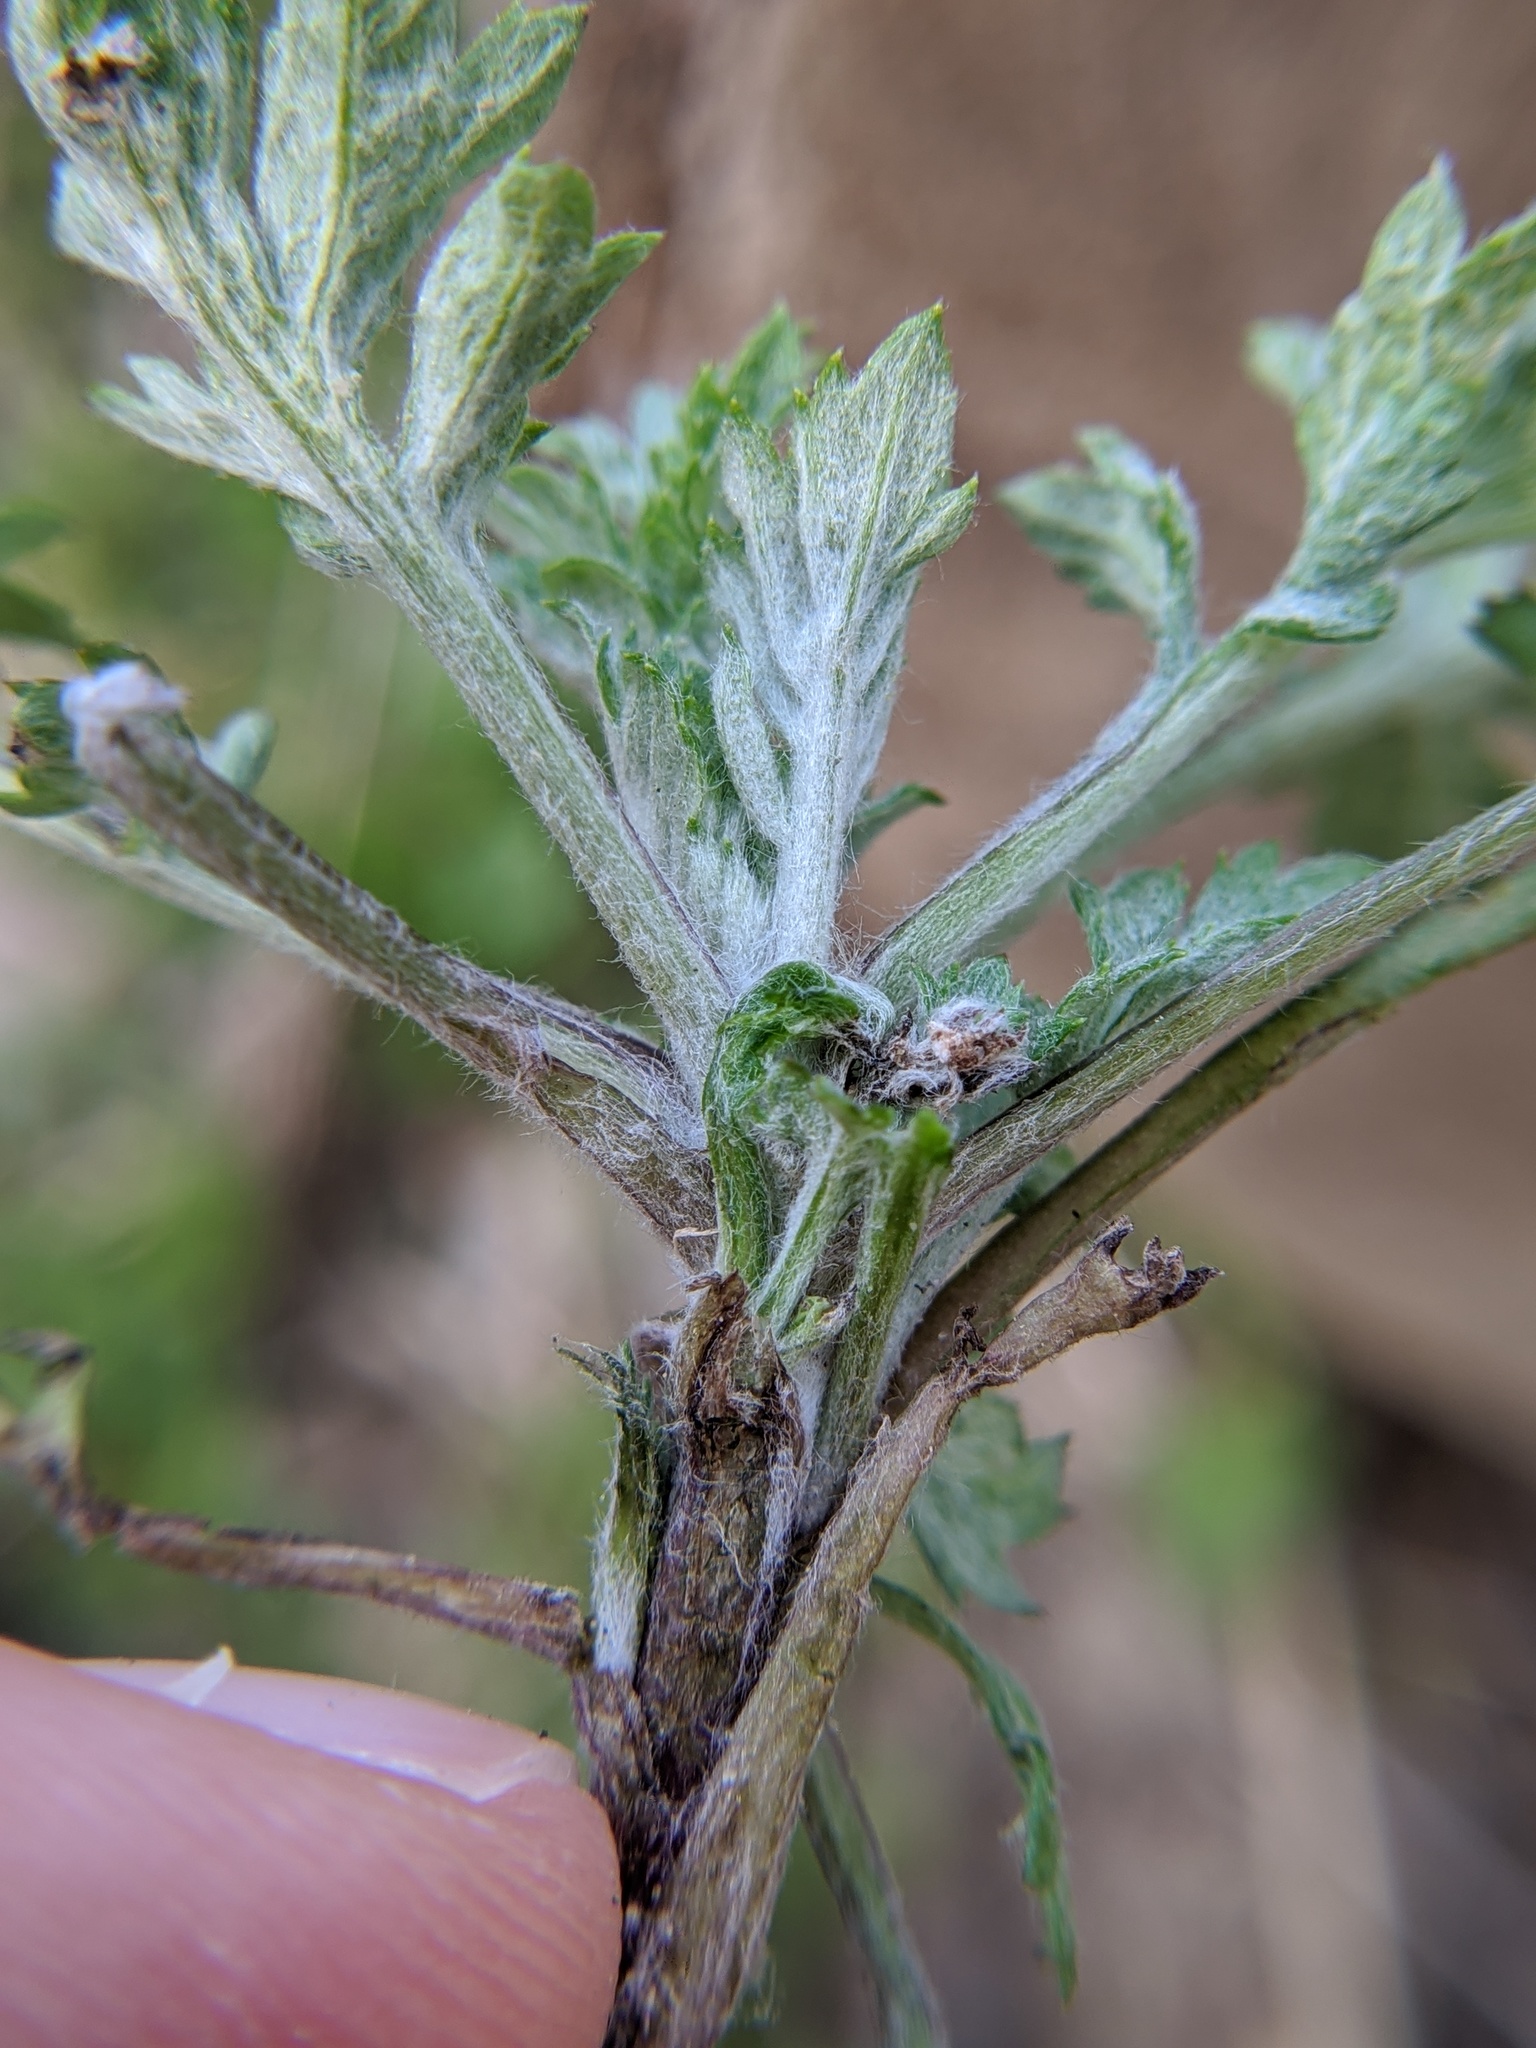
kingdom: Plantae
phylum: Tracheophyta
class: Magnoliopsida
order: Asterales
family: Asteraceae
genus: Artemisia
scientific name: Artemisia vulgaris
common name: Mugwort
